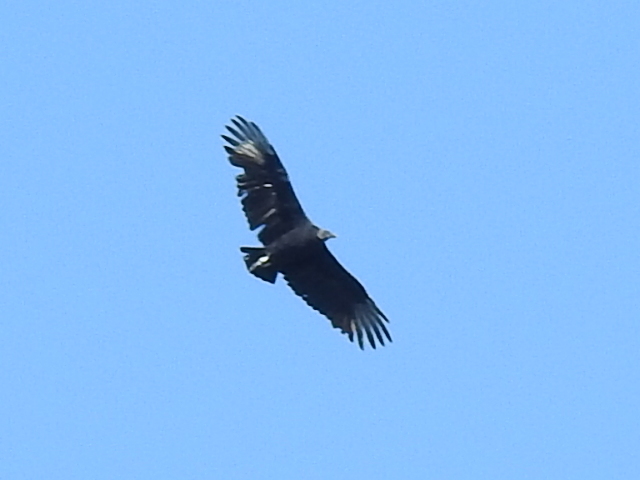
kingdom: Animalia
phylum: Chordata
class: Aves
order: Accipitriformes
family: Cathartidae
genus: Coragyps
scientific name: Coragyps atratus
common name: Black vulture
